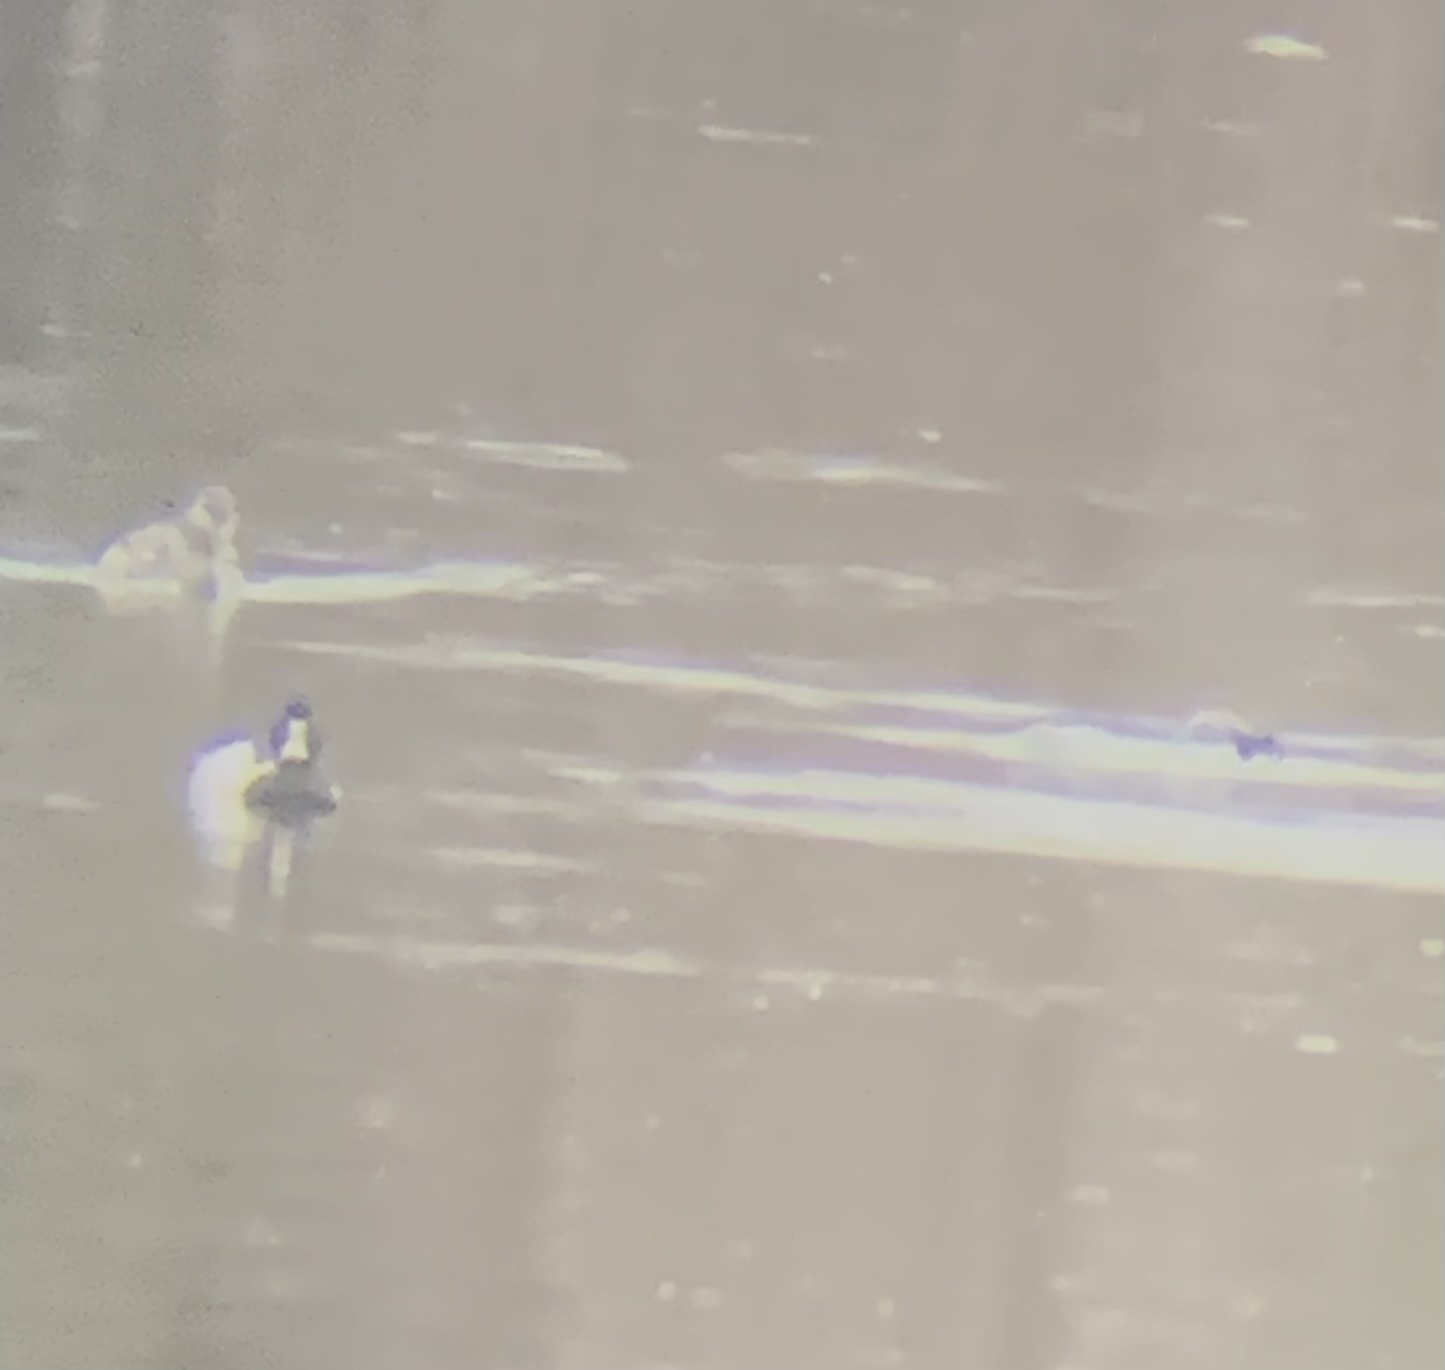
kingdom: Animalia
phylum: Chordata
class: Aves
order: Anseriformes
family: Anatidae
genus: Aythya
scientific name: Aythya collaris
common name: Ring-necked duck
